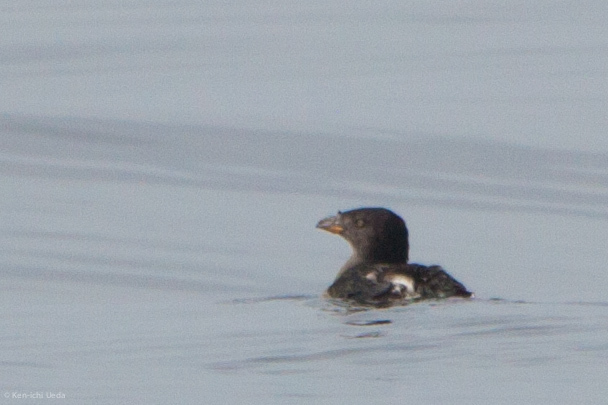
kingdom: Animalia
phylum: Chordata
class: Aves
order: Charadriiformes
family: Alcidae
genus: Cerorhinca
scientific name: Cerorhinca monocerata
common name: Rhinoceros auklet
